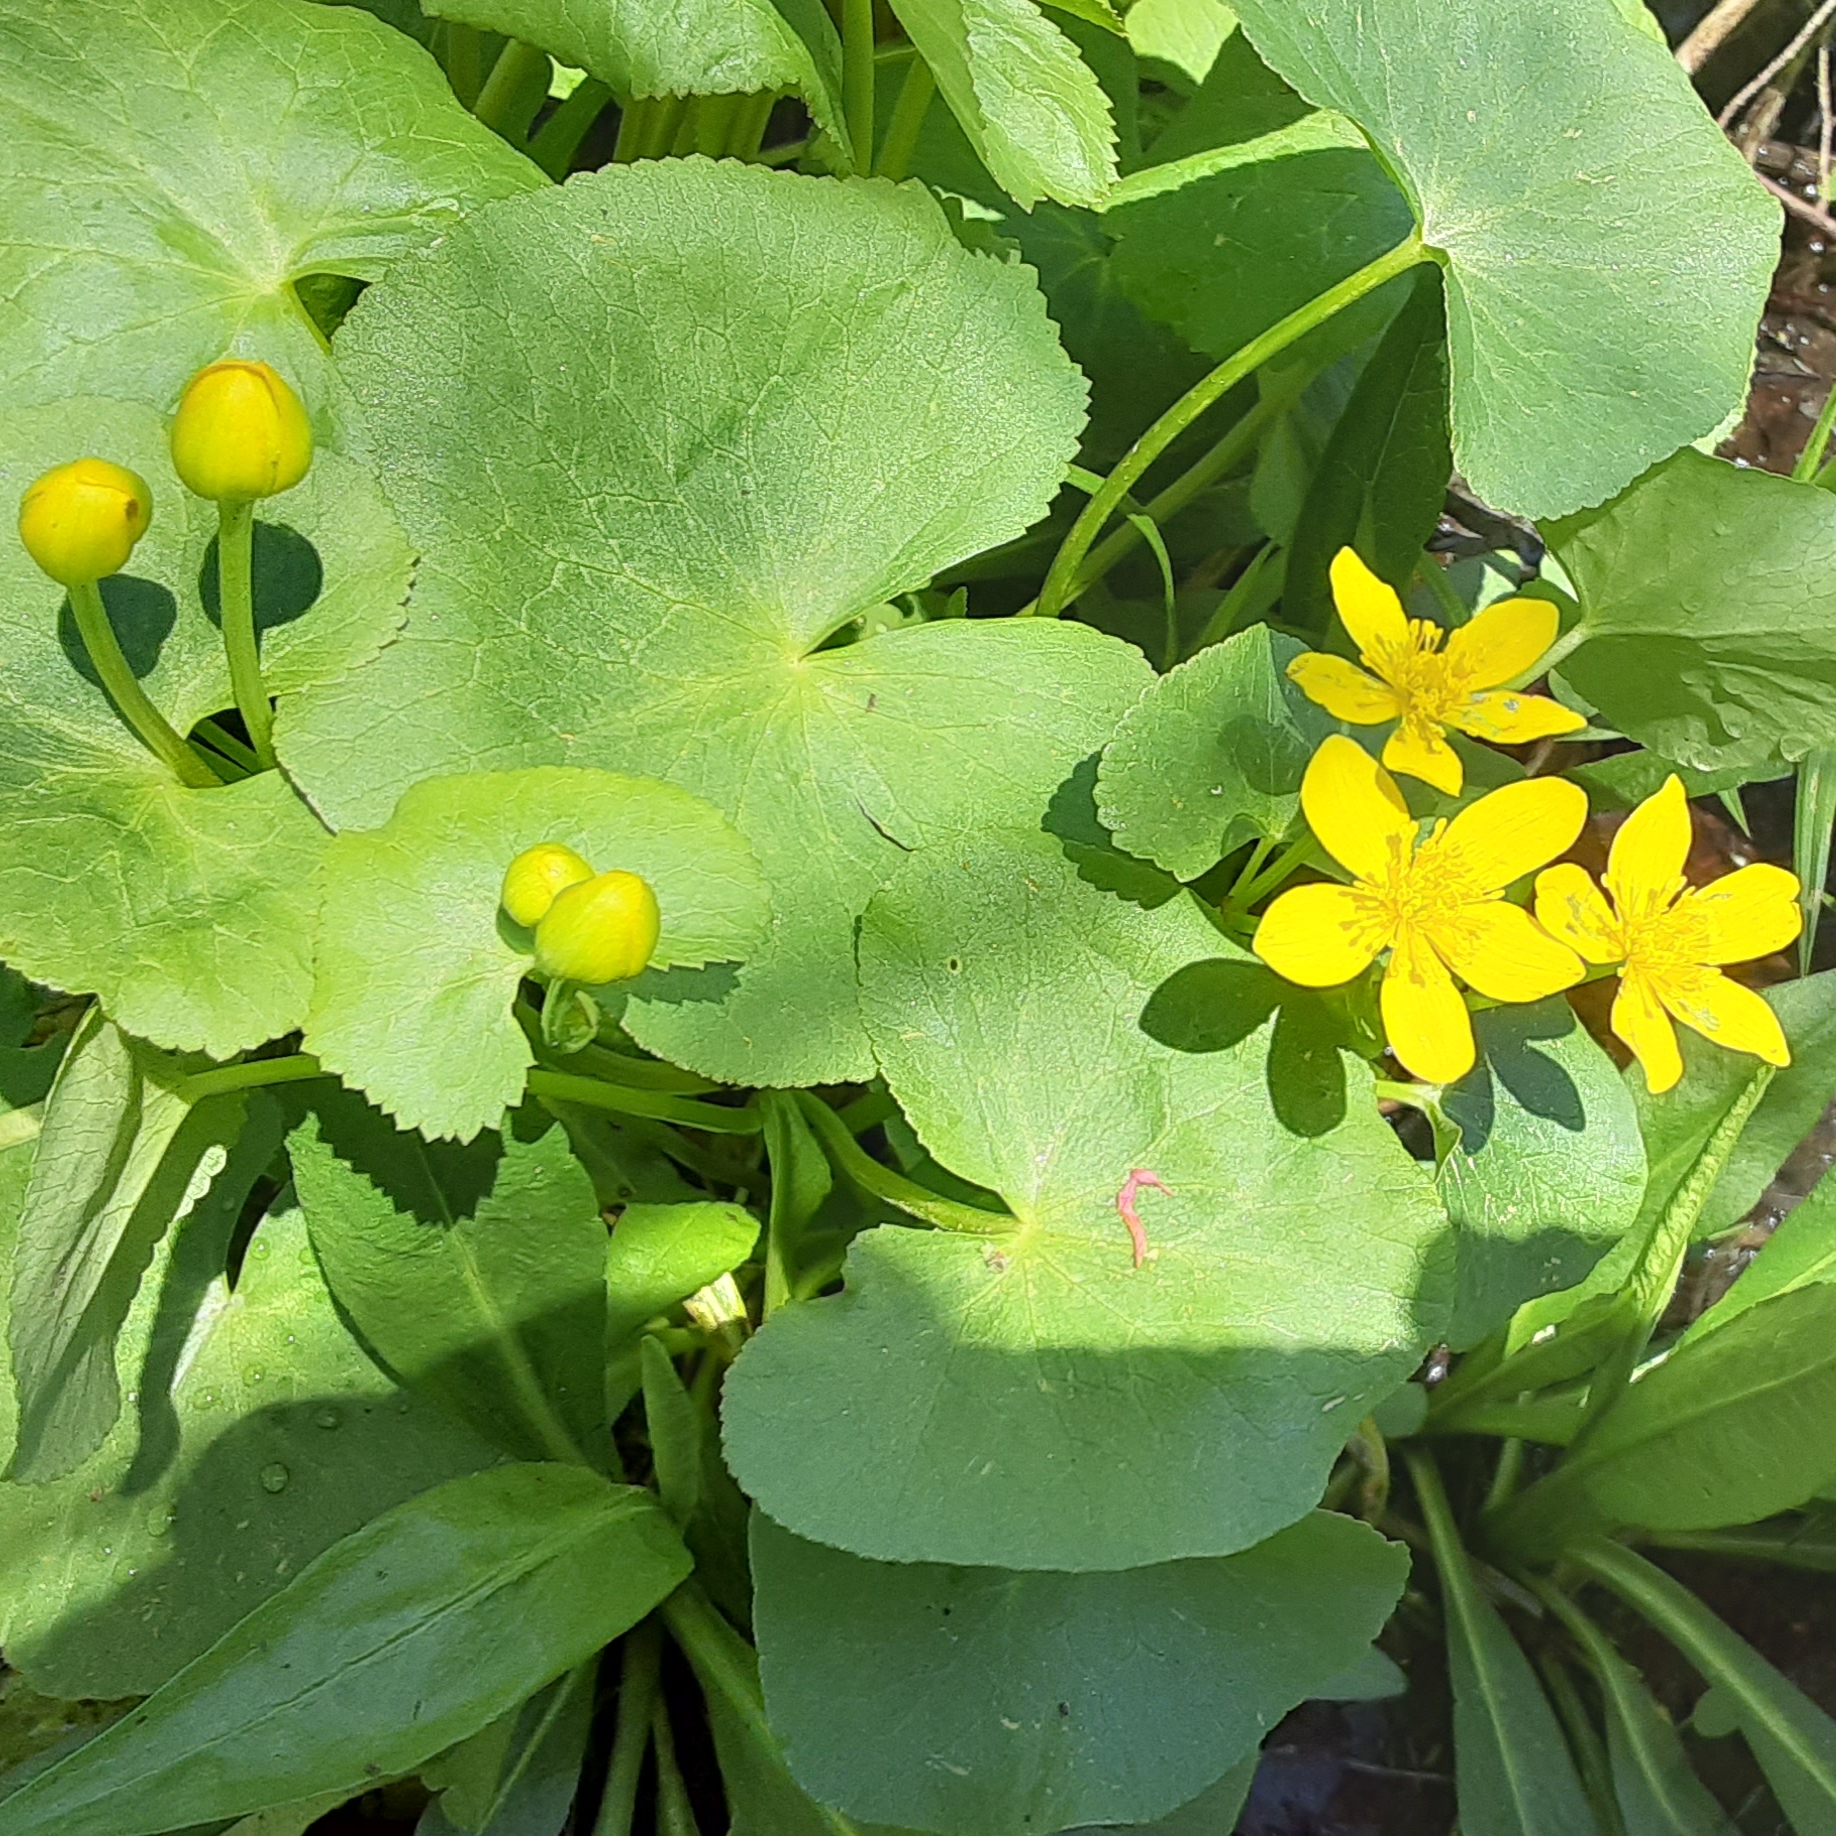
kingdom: Plantae
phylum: Tracheophyta
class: Magnoliopsida
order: Ranunculales
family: Ranunculaceae
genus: Caltha
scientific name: Caltha palustris
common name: Marsh marigold
